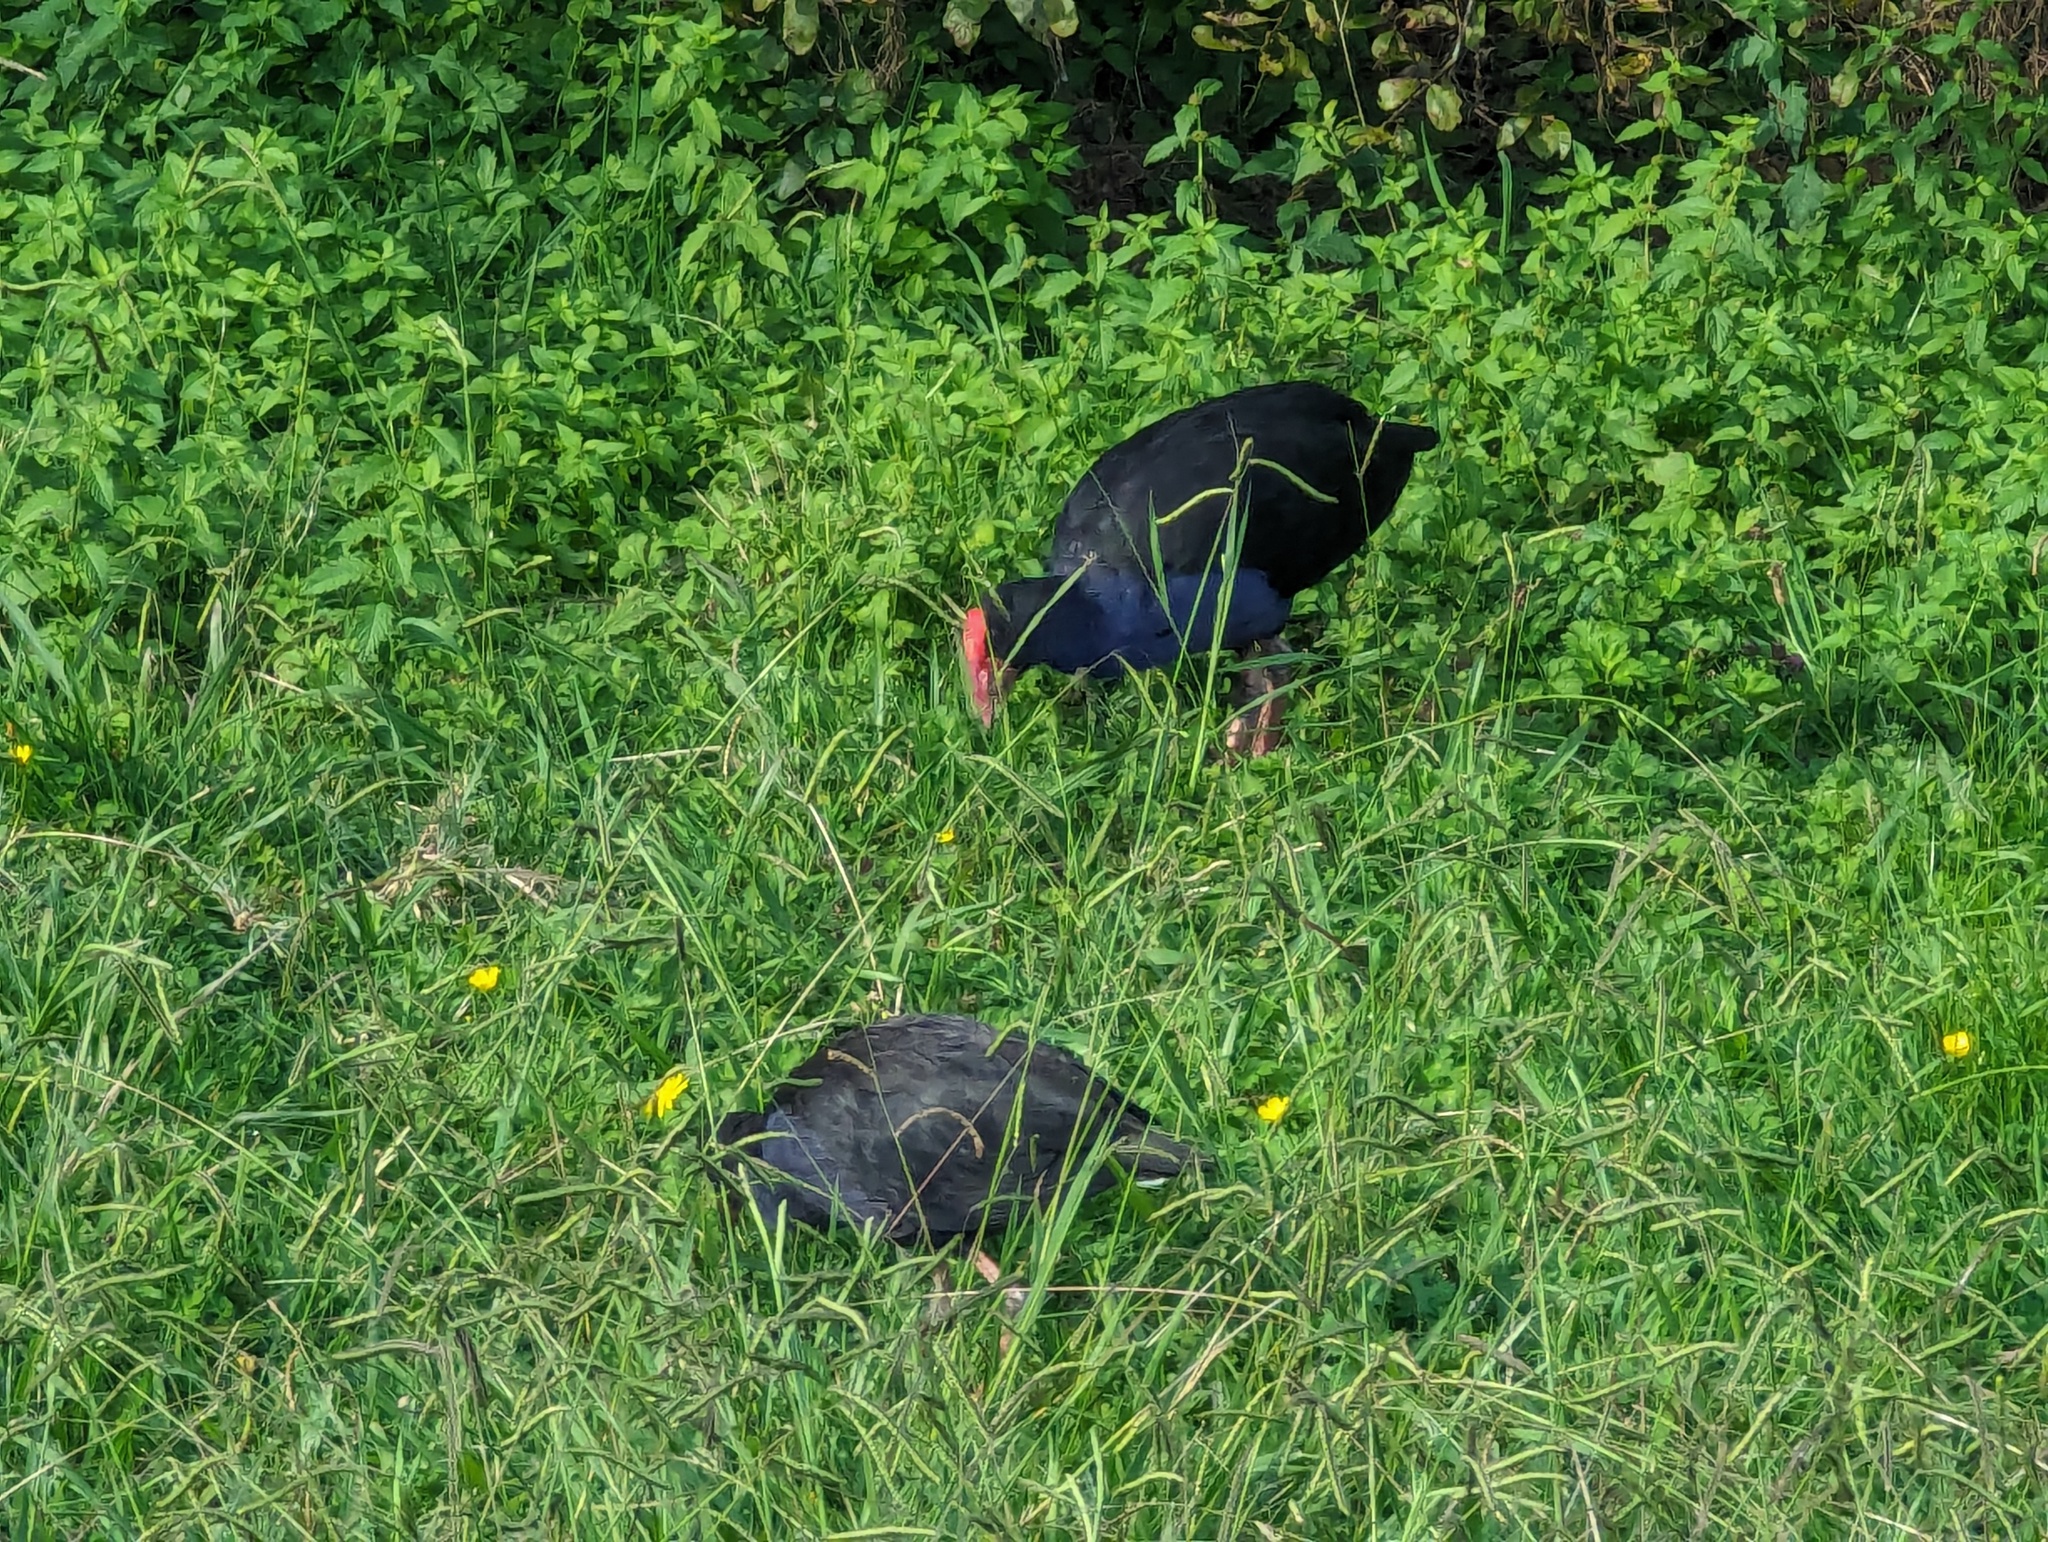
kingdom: Animalia
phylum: Chordata
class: Aves
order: Gruiformes
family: Rallidae
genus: Porphyrio
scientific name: Porphyrio melanotus
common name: Australasian swamphen
